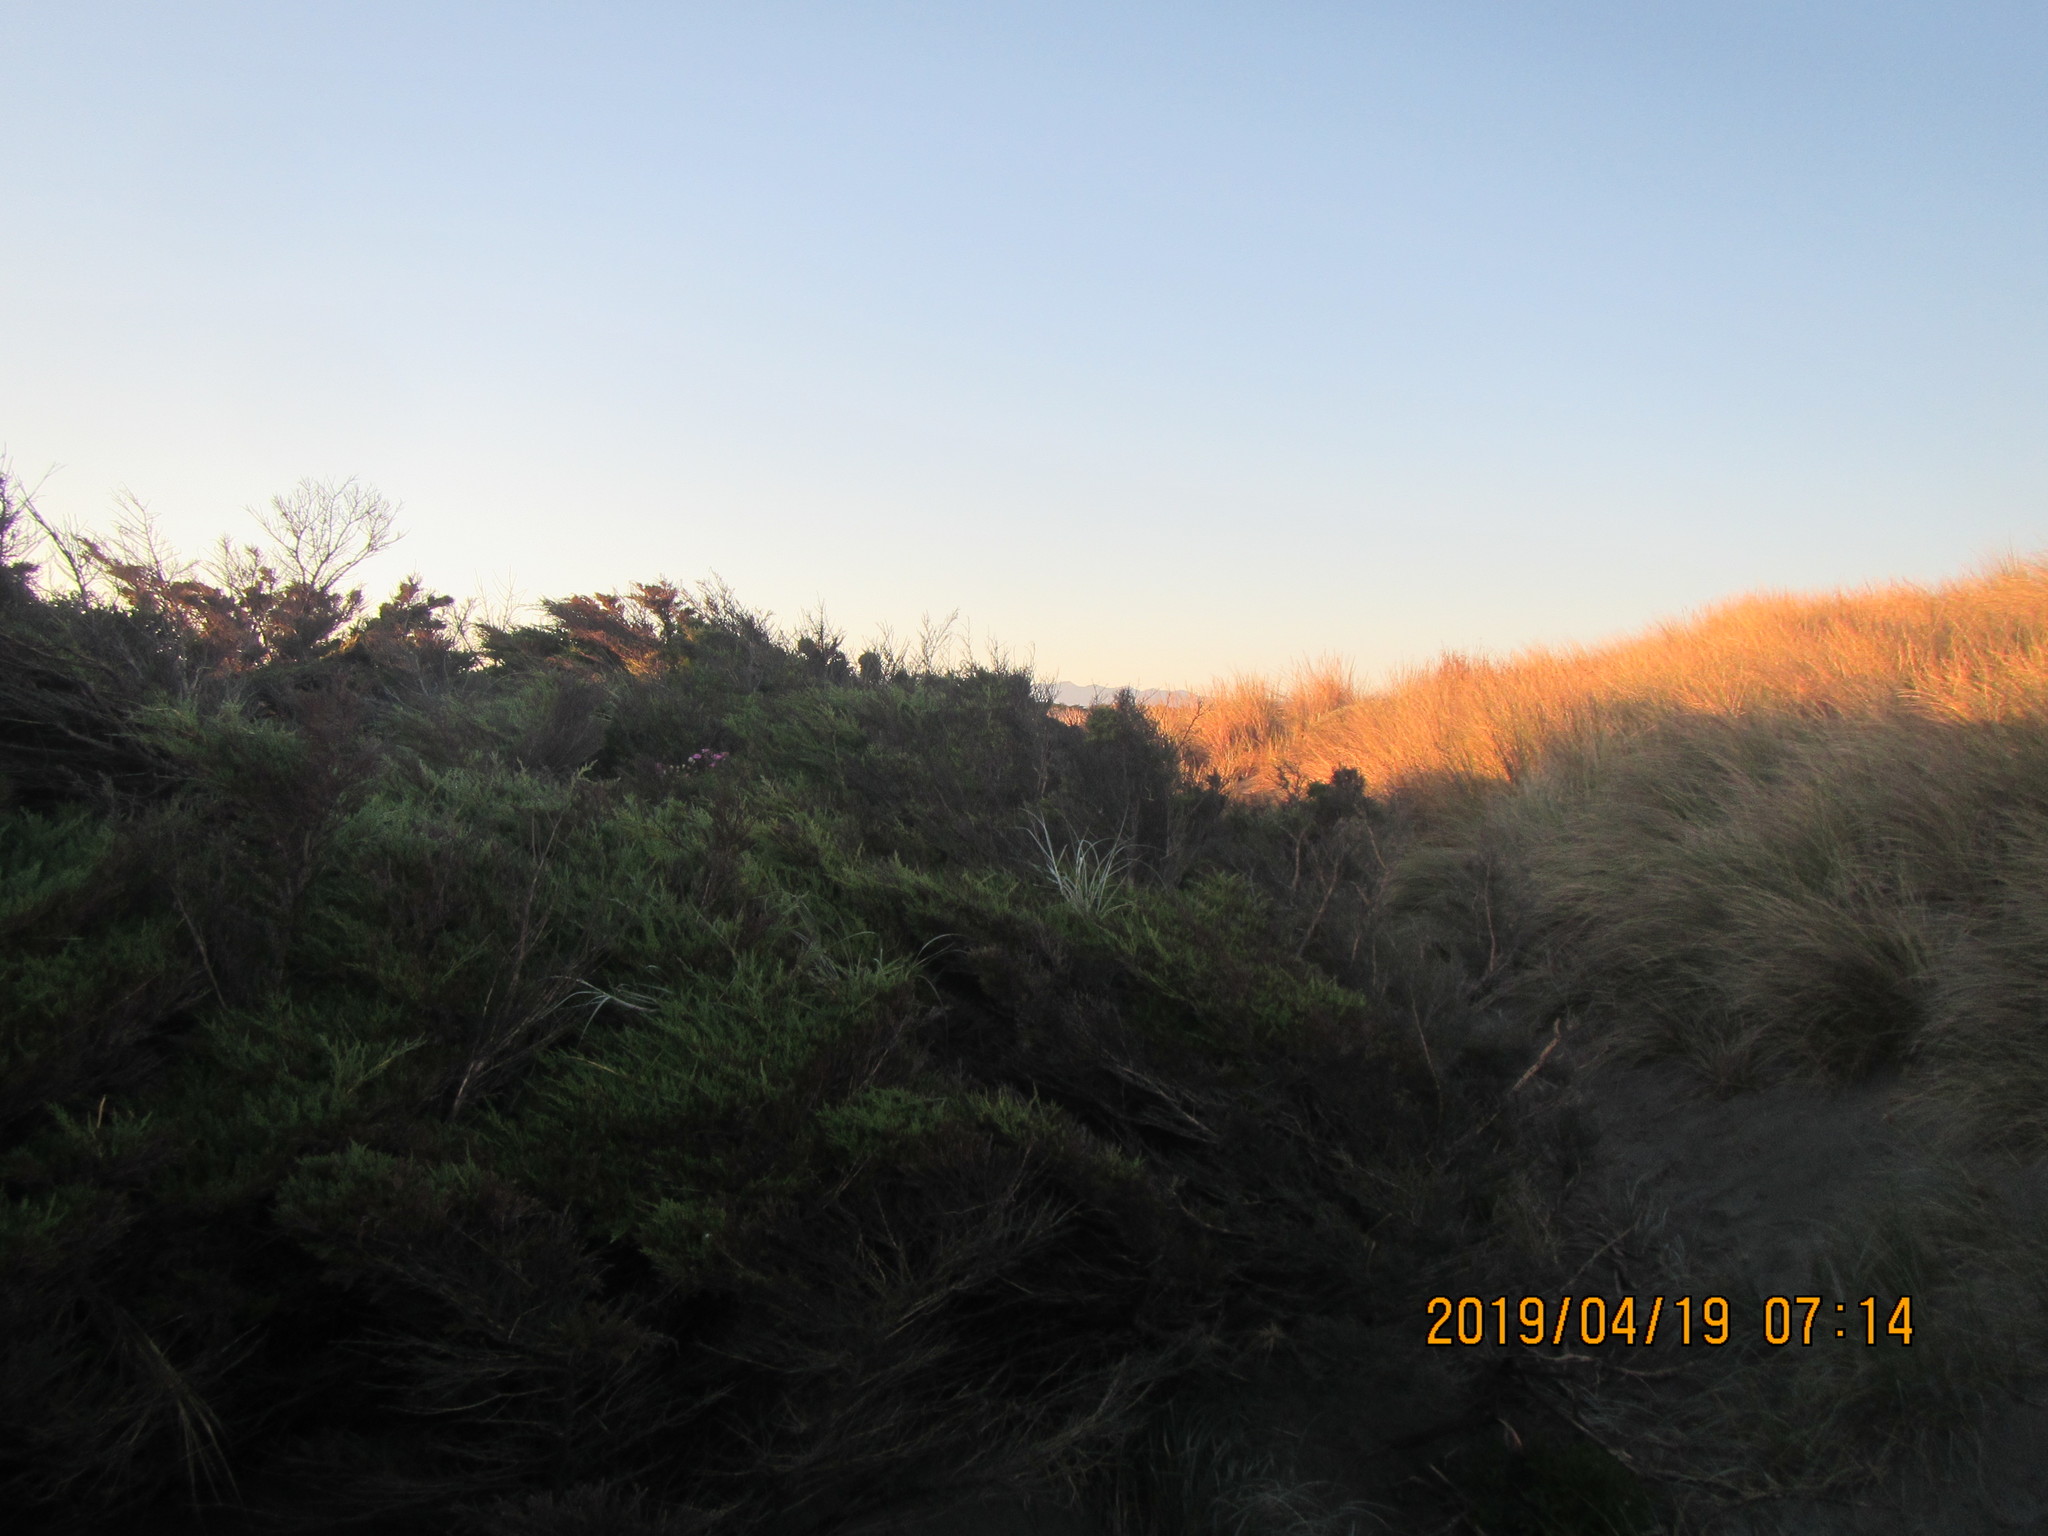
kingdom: Plantae
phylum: Tracheophyta
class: Liliopsida
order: Poales
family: Poaceae
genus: Spinifex
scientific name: Spinifex sericeus
